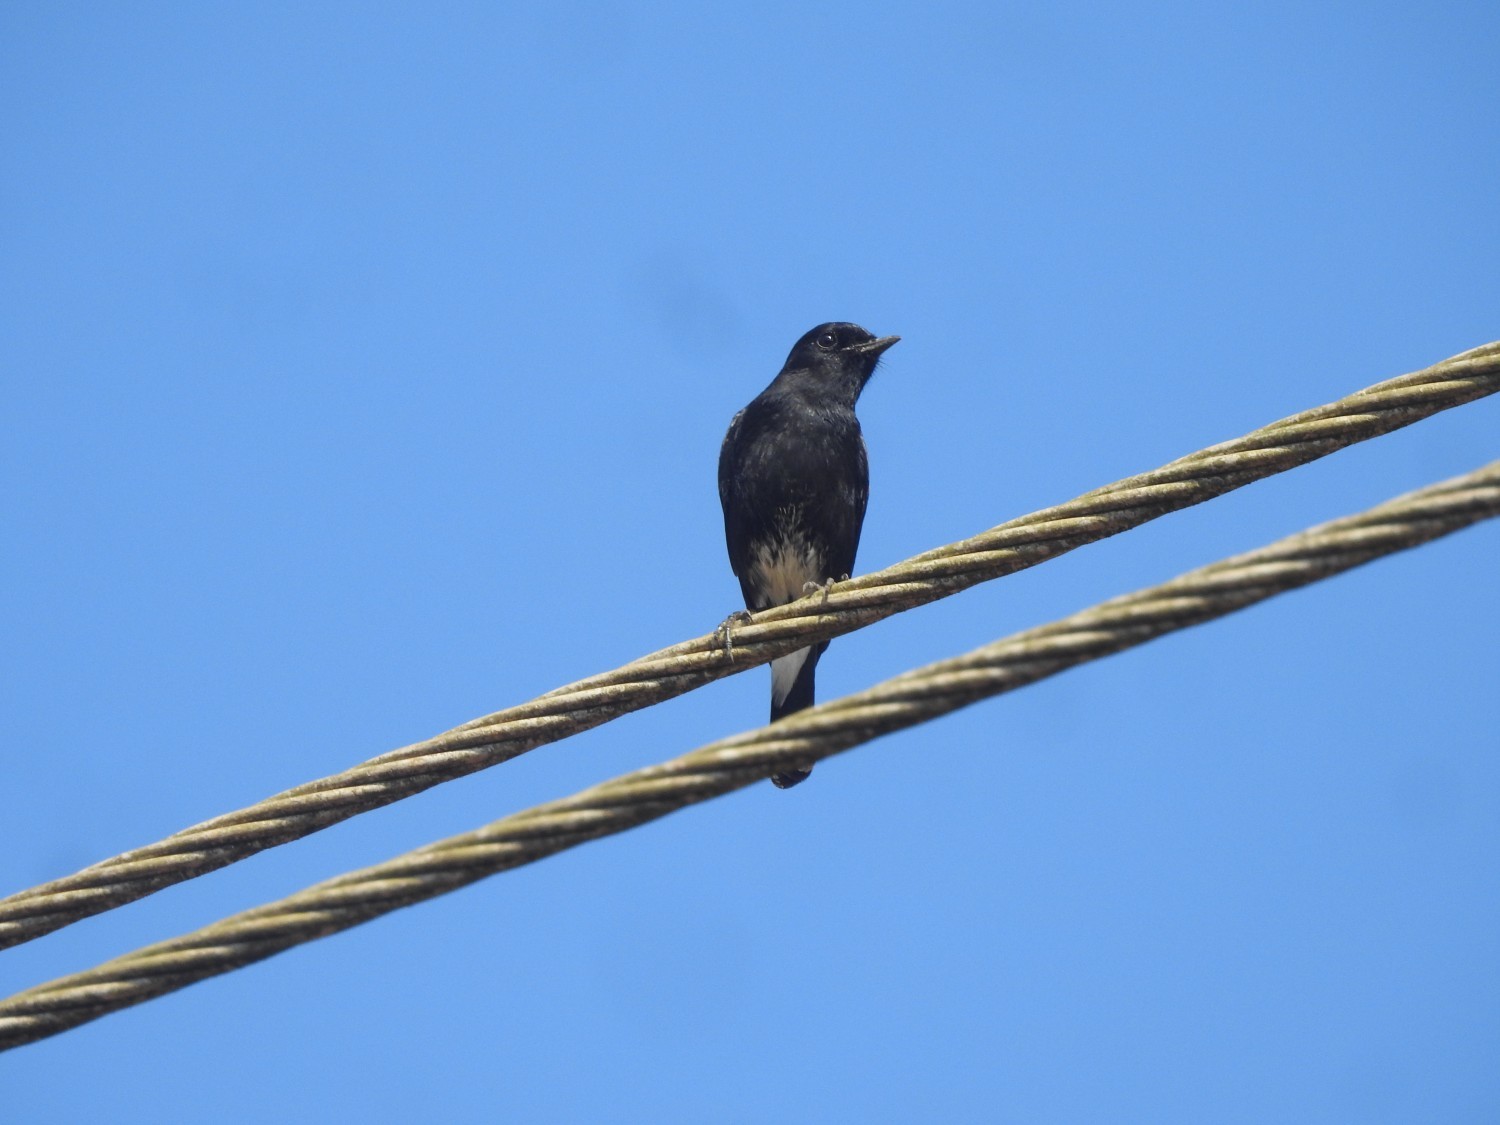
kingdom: Animalia
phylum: Chordata
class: Aves
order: Passeriformes
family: Muscicapidae
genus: Saxicola
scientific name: Saxicola caprata
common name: Pied bush chat
